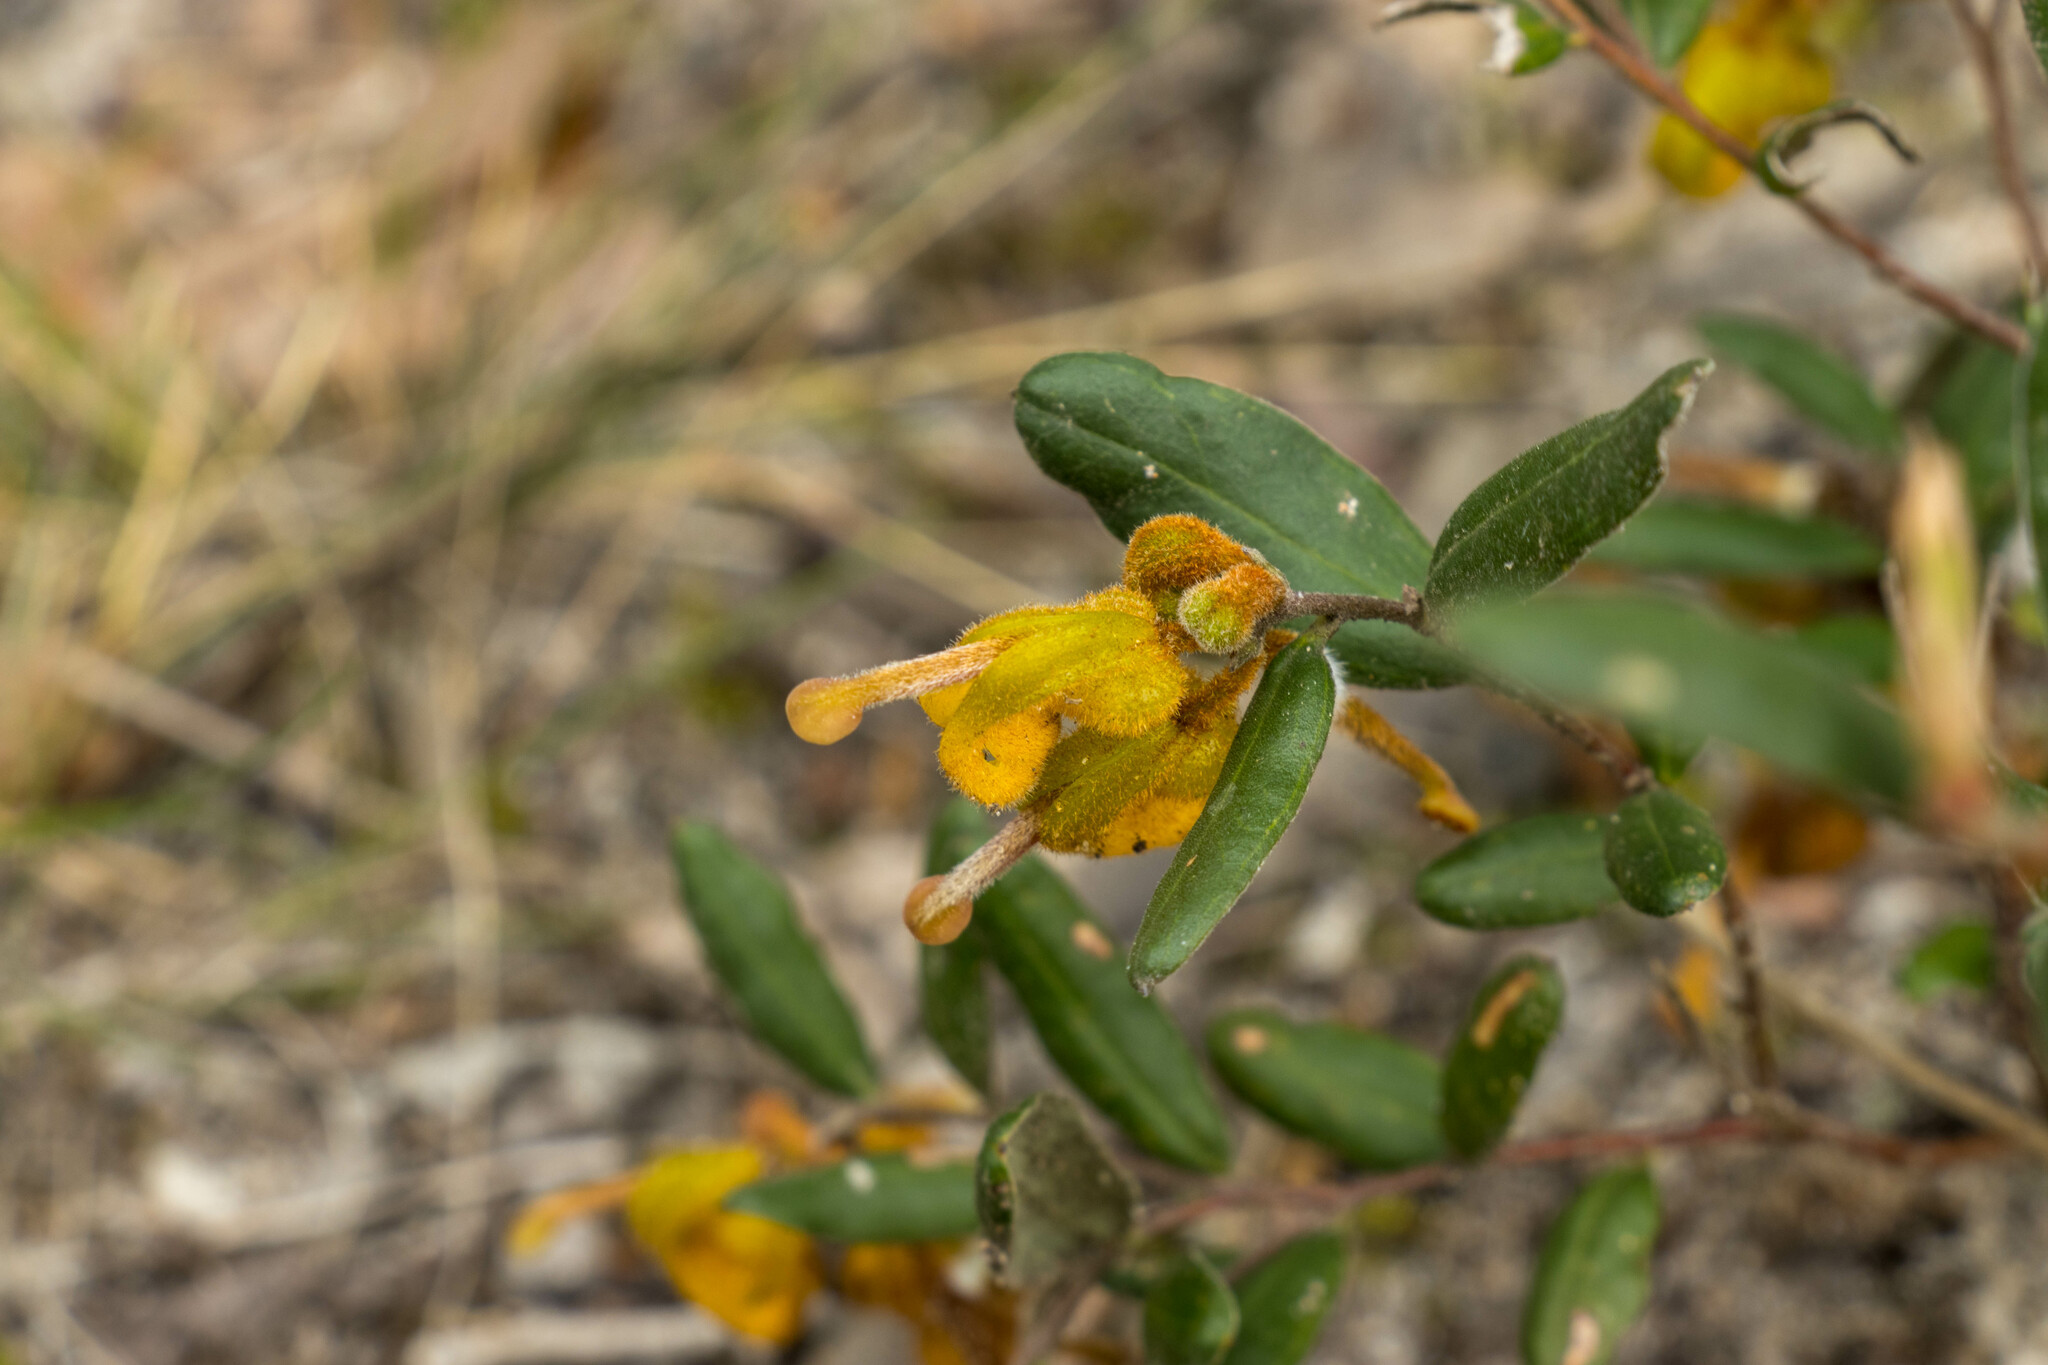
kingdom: Plantae
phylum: Tracheophyta
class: Magnoliopsida
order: Proteales
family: Proteaceae
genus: Grevillea
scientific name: Grevillea chrysophaea
